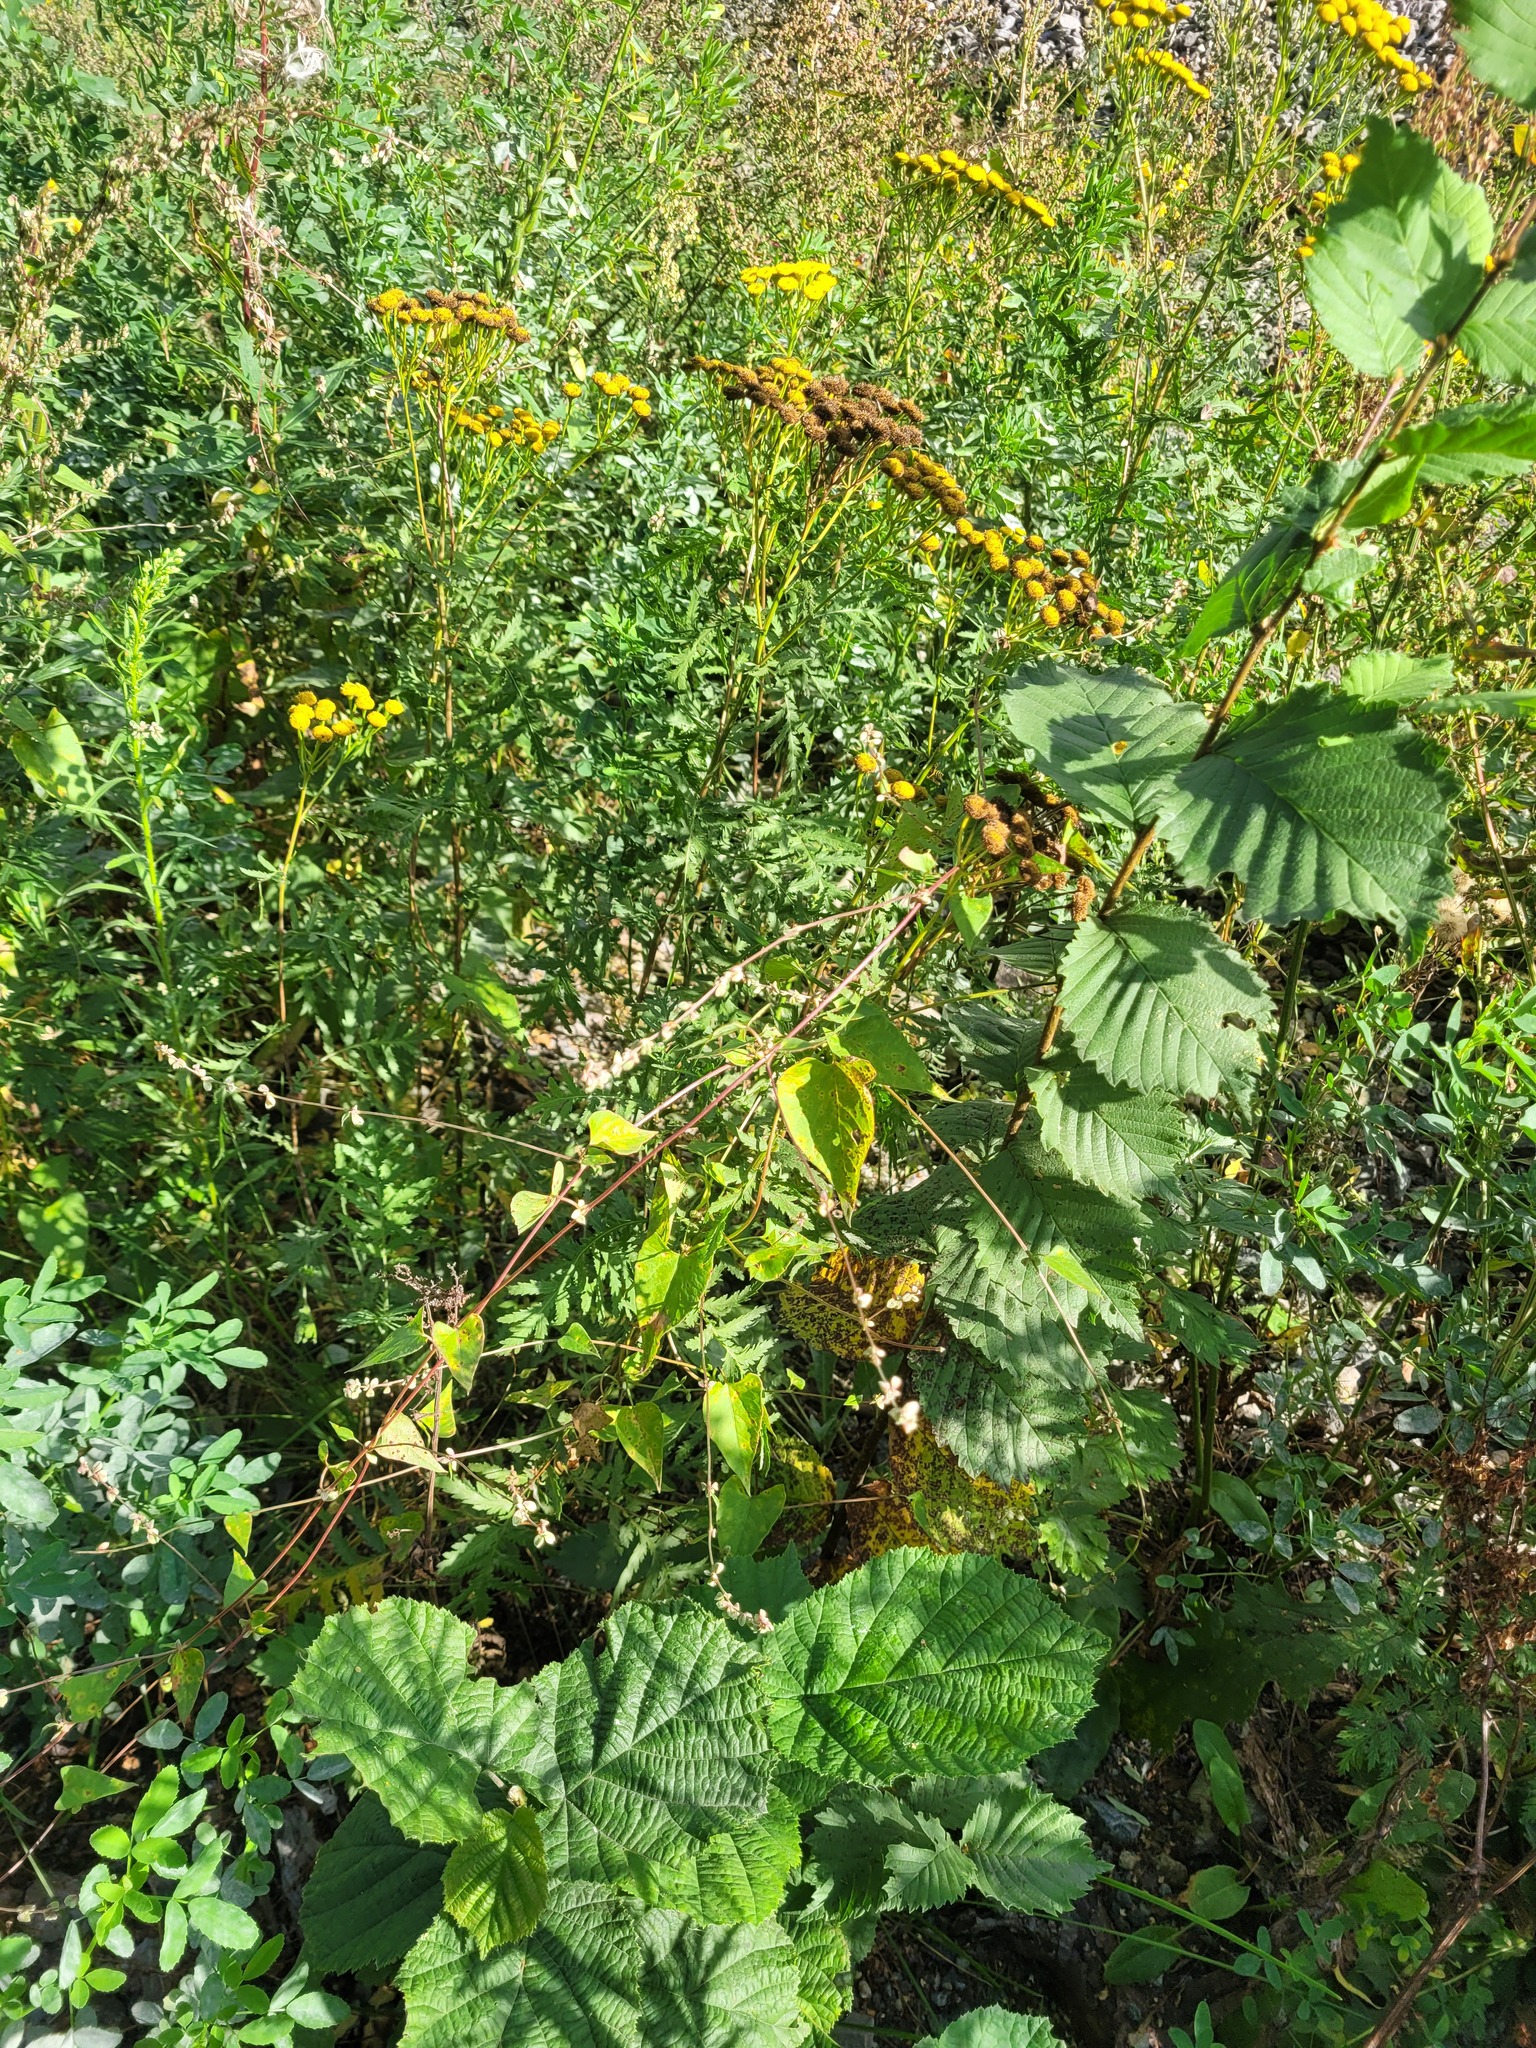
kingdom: Plantae
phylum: Tracheophyta
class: Magnoliopsida
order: Caryophyllales
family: Polygonaceae
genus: Fallopia
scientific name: Fallopia convolvulus
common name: Black bindweed
